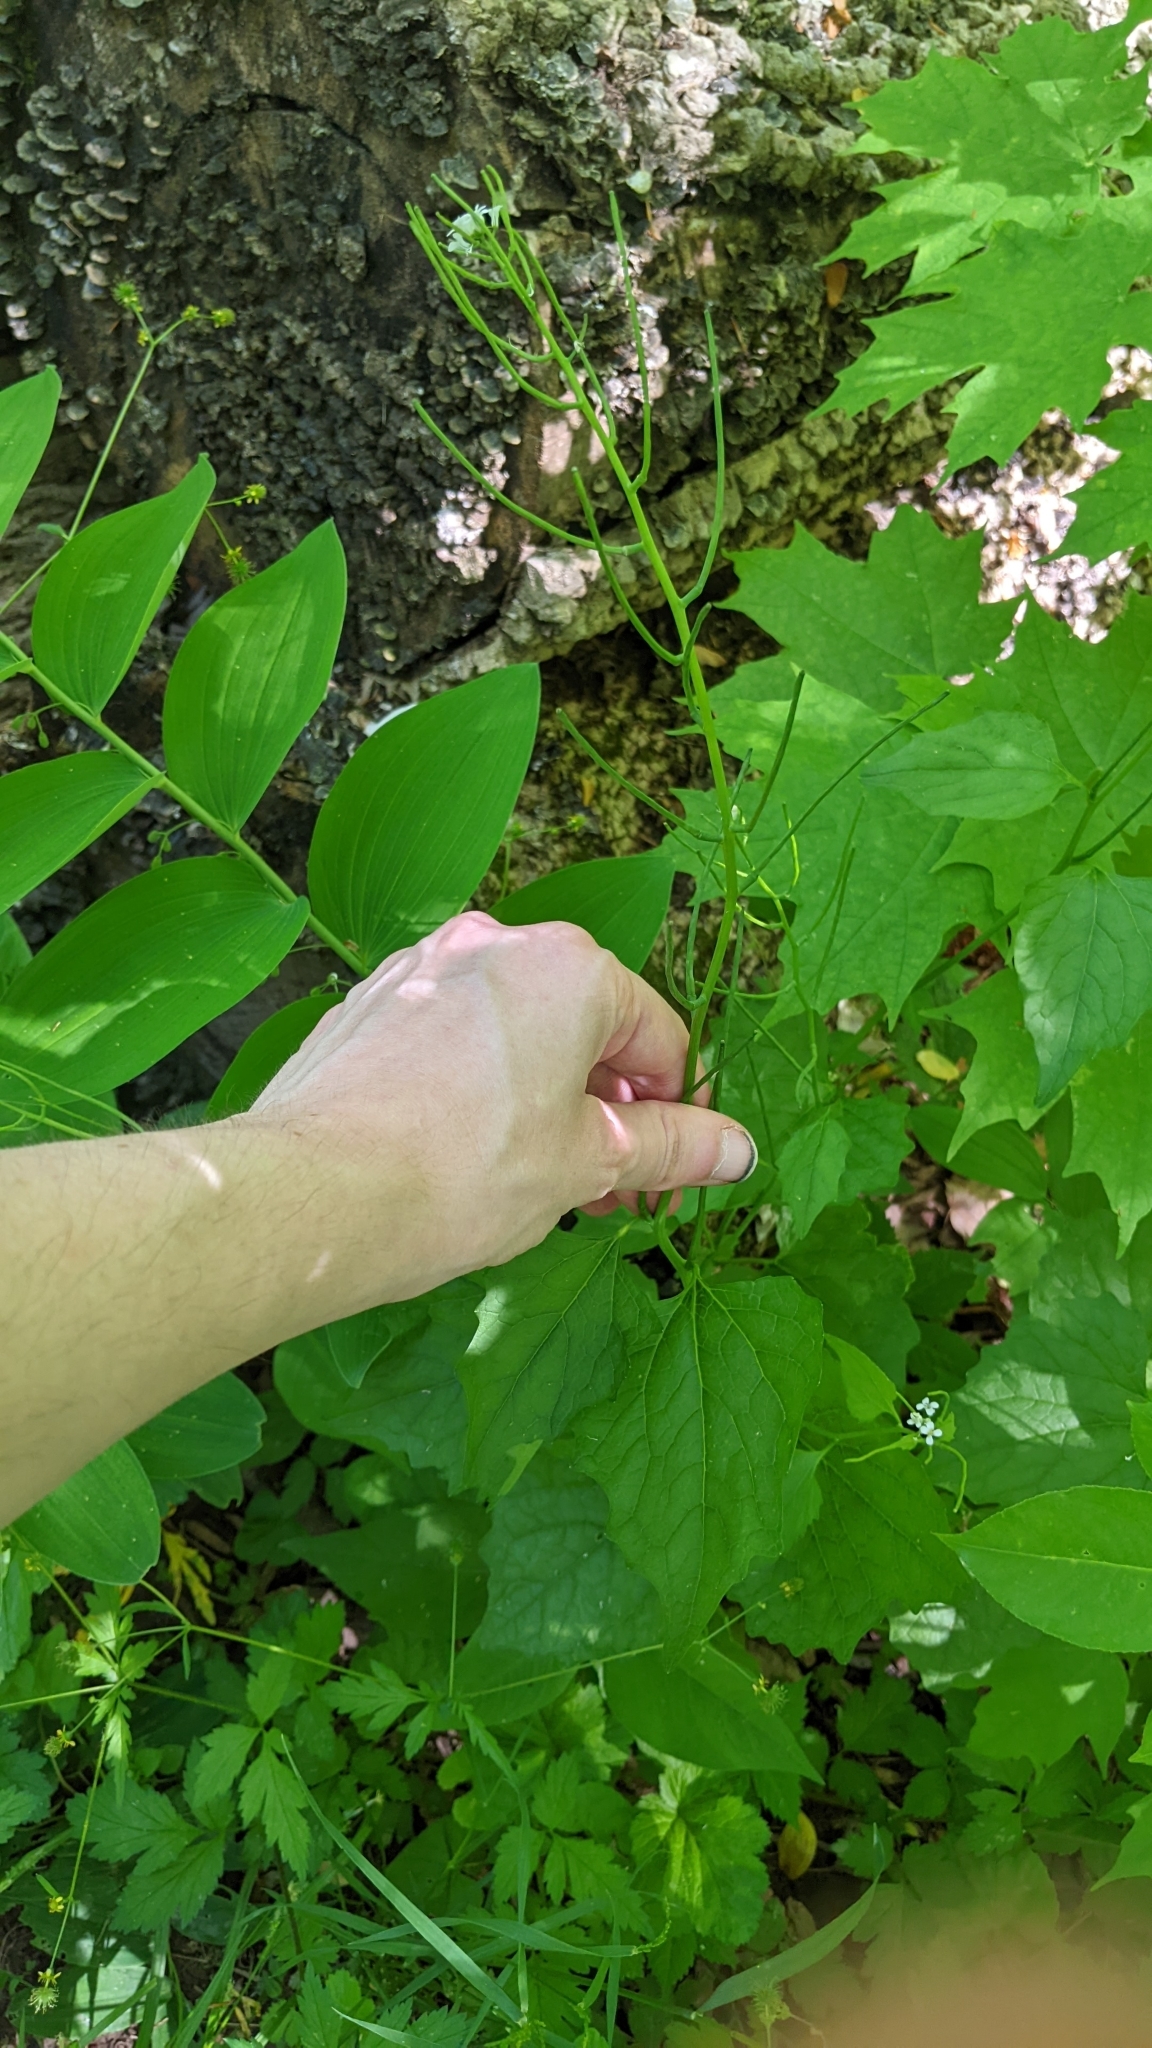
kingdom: Plantae
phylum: Tracheophyta
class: Magnoliopsida
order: Brassicales
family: Brassicaceae
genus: Alliaria
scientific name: Alliaria petiolata
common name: Garlic mustard
